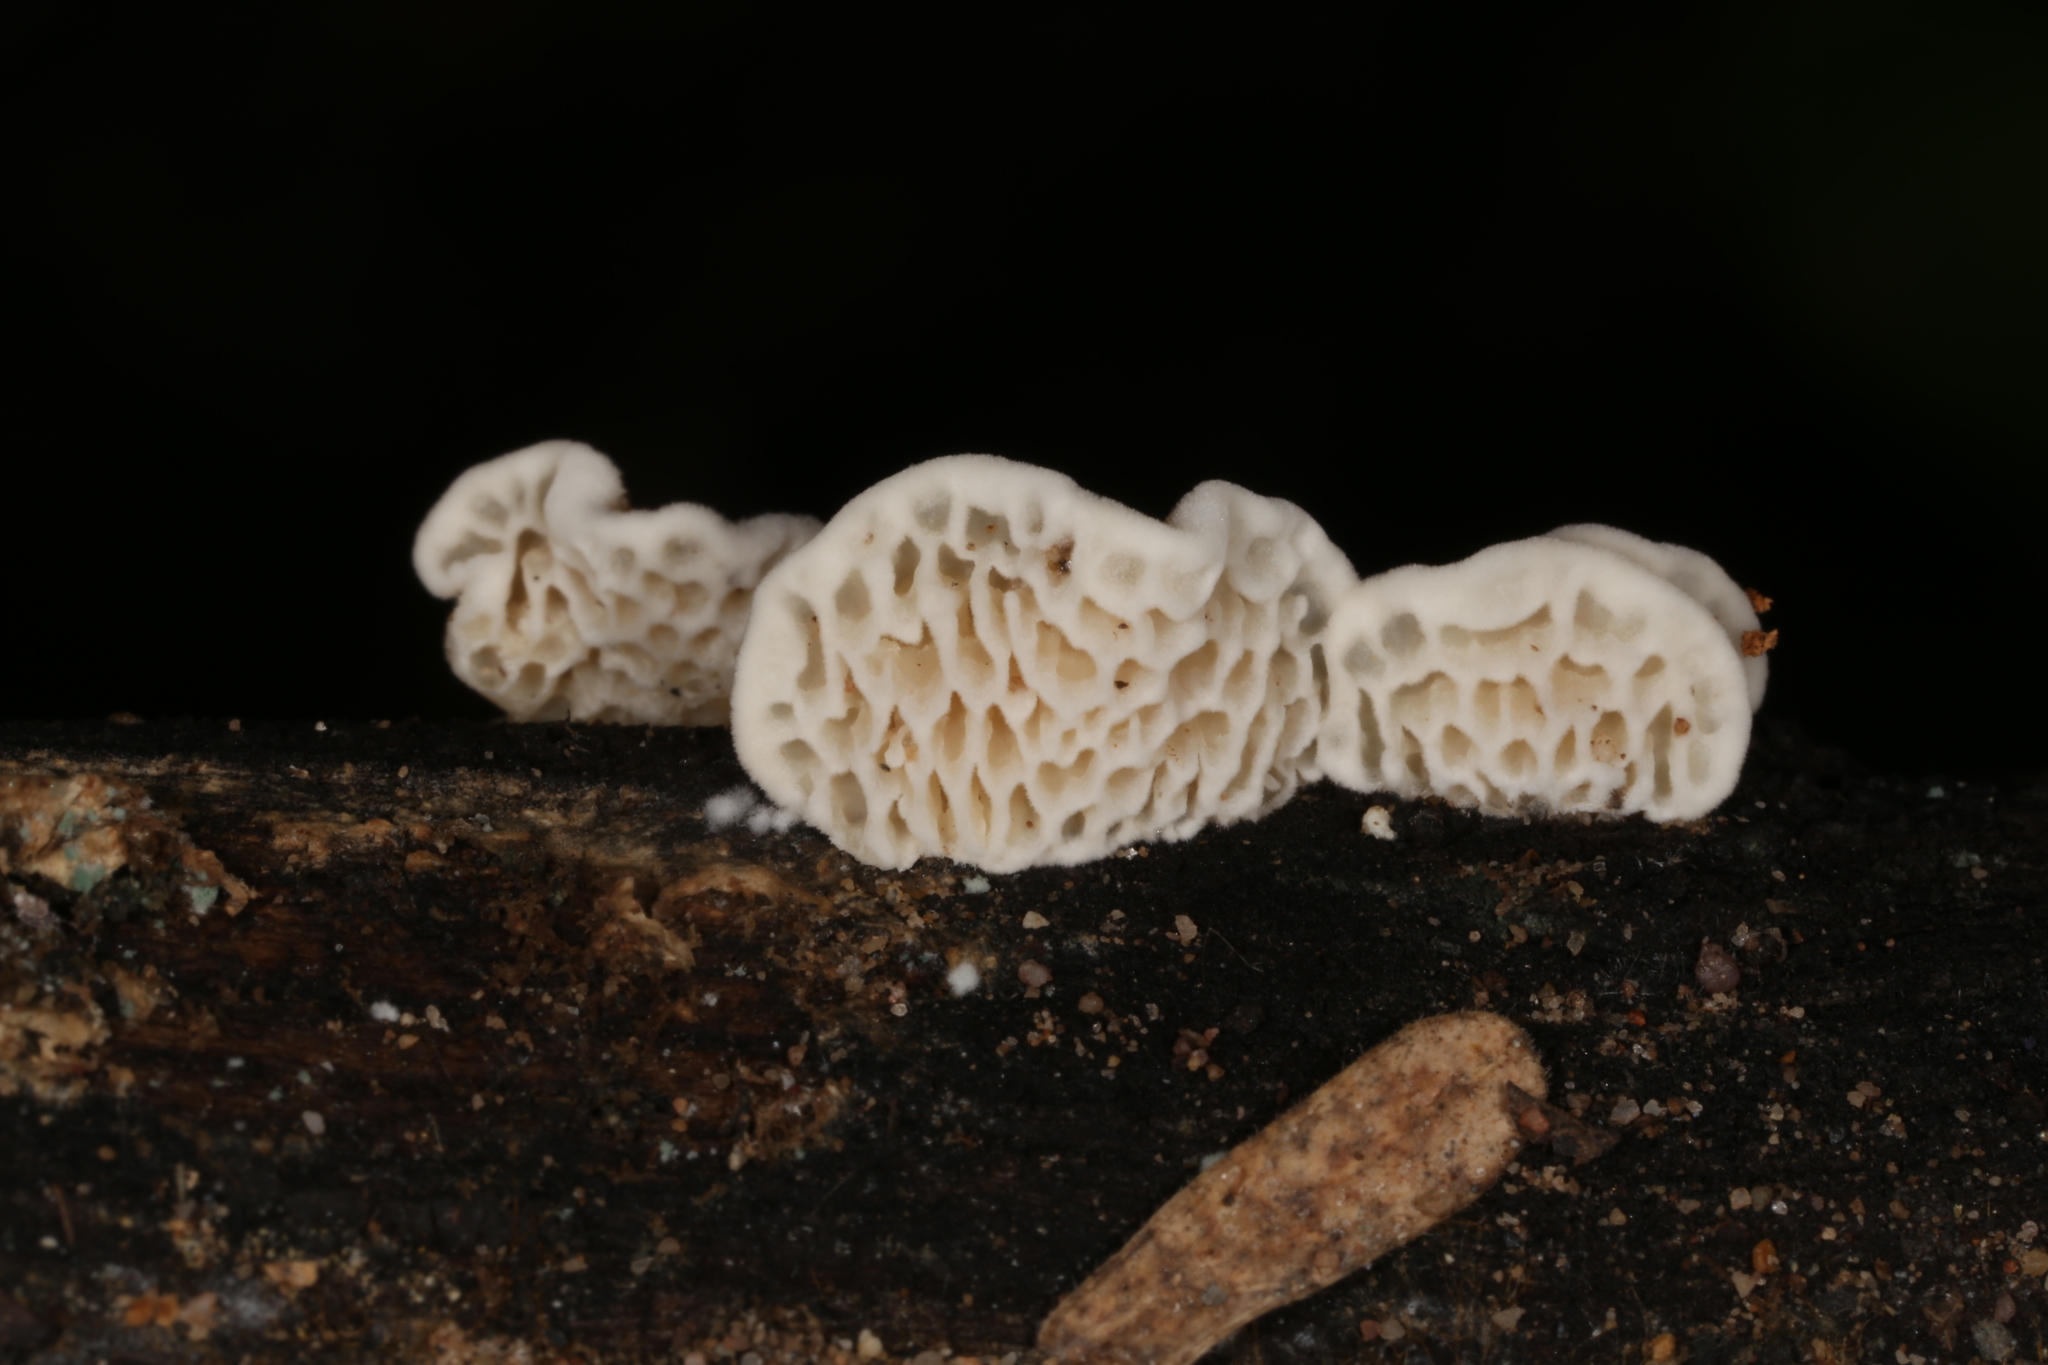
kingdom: Fungi
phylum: Basidiomycota
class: Agaricomycetes
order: Polyporales
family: Fomitopsidaceae
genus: Antrodia
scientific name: Antrodia favescens
